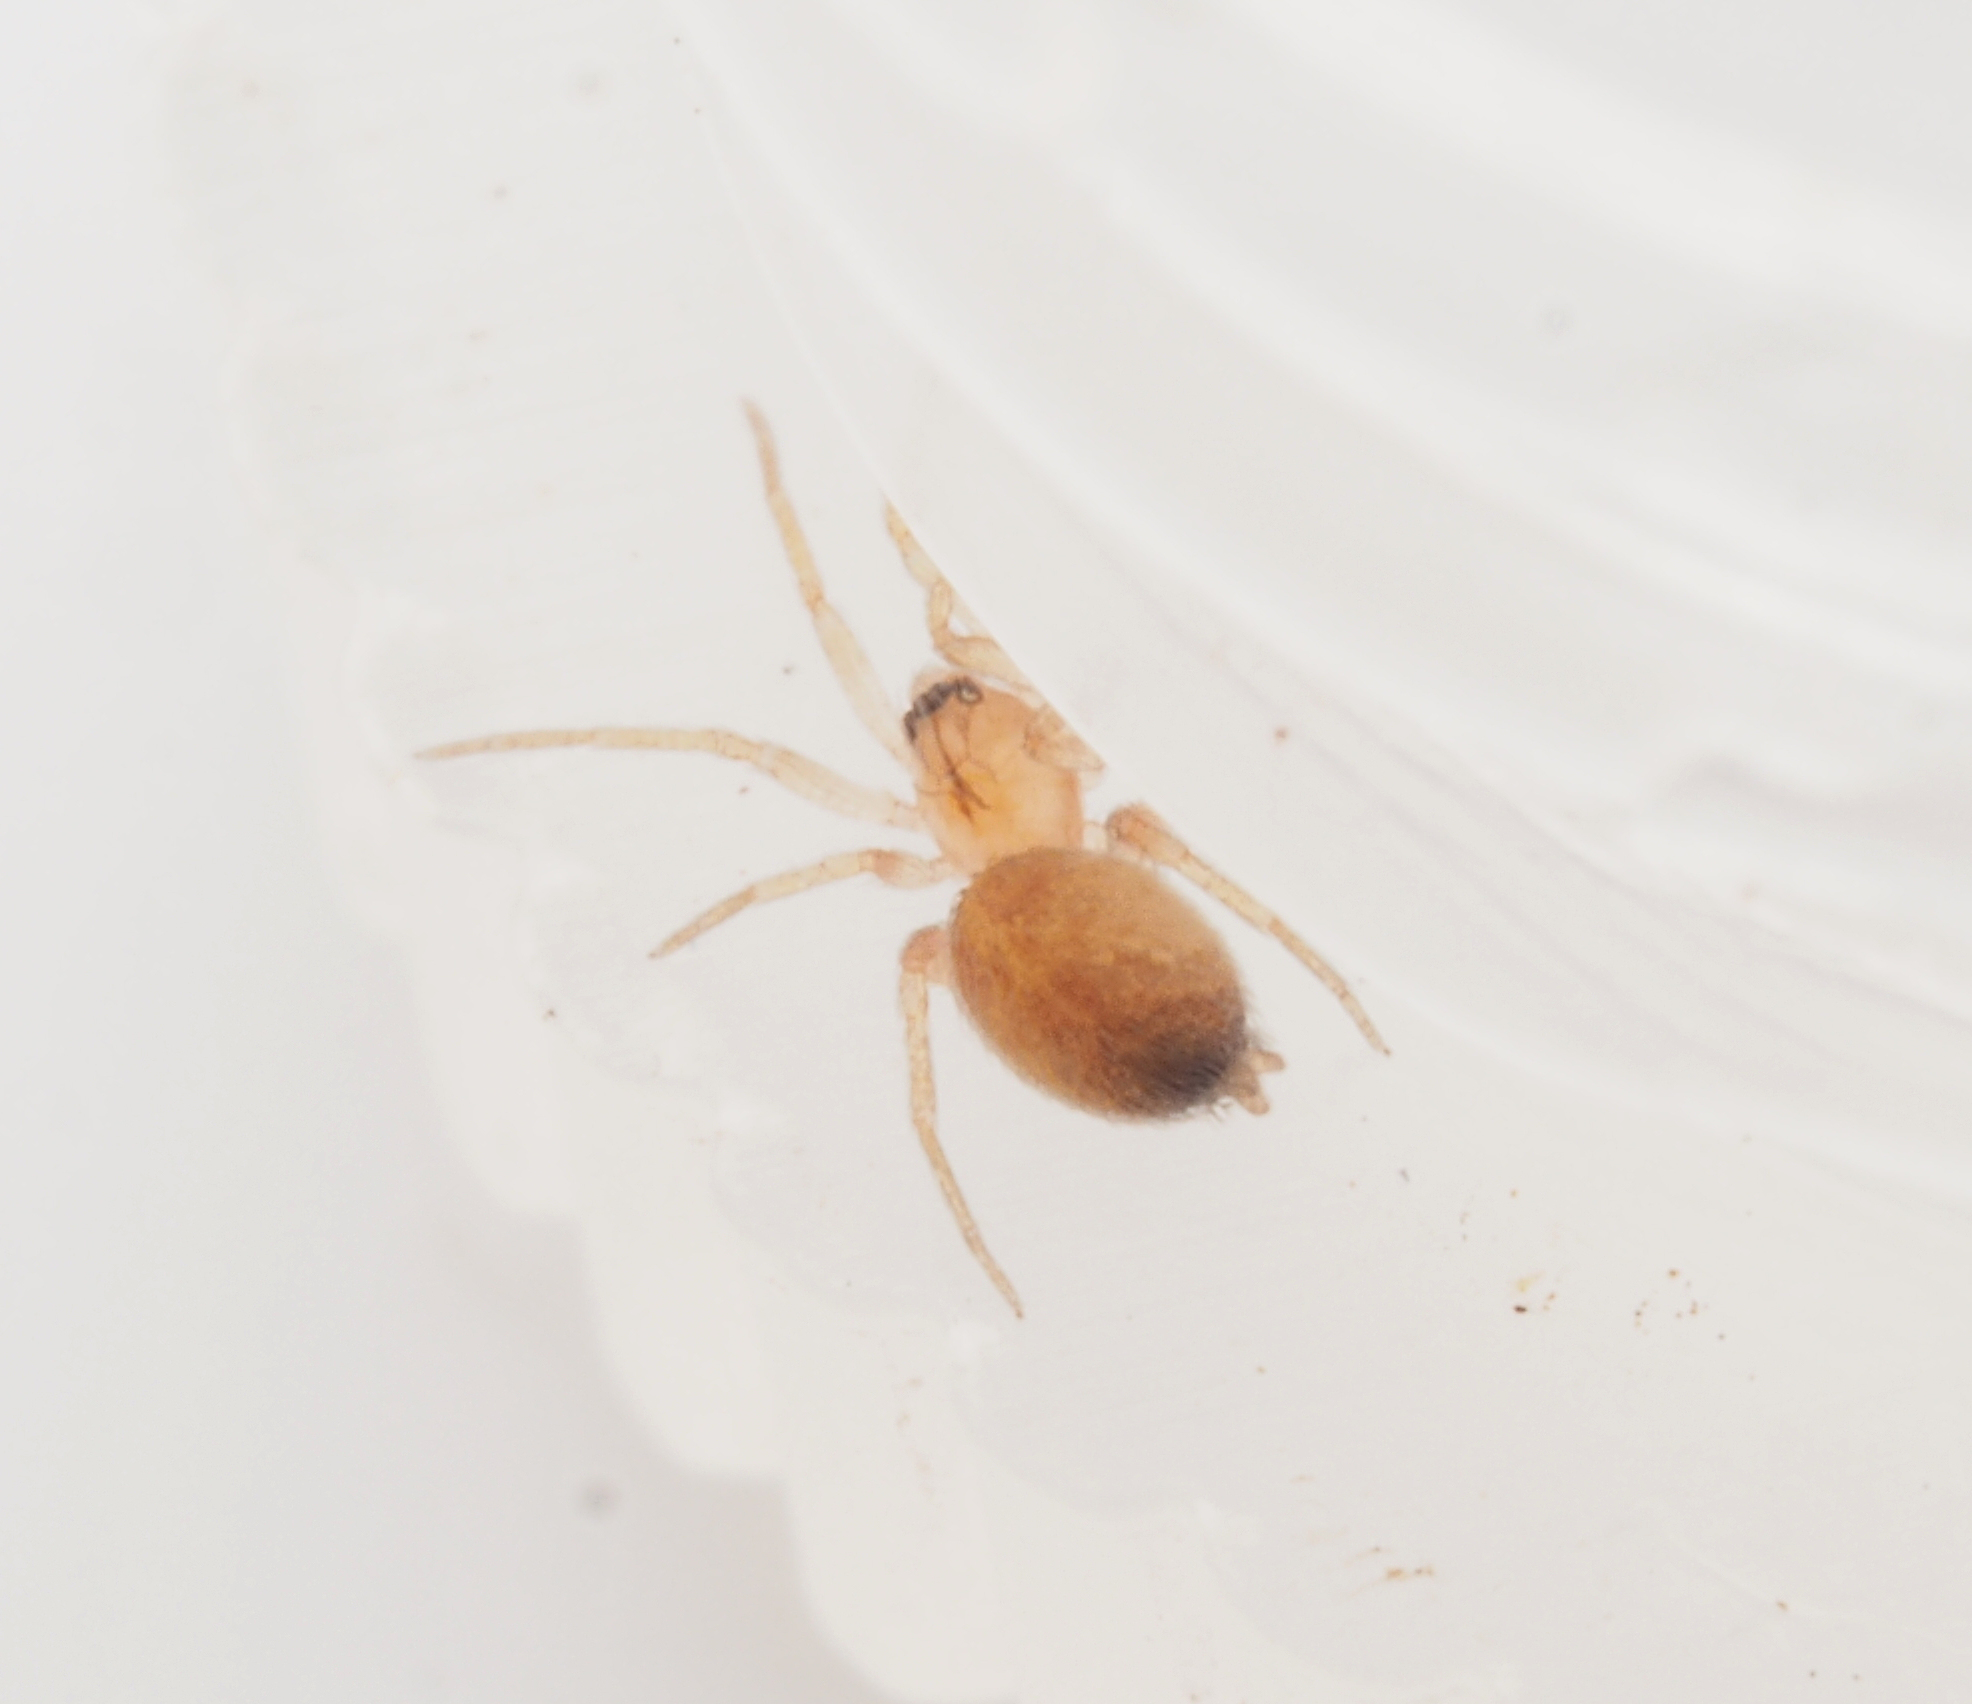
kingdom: Animalia
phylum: Arthropoda
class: Arachnida
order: Araneae
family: Oonopidae
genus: Orchestina
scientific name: Orchestina
